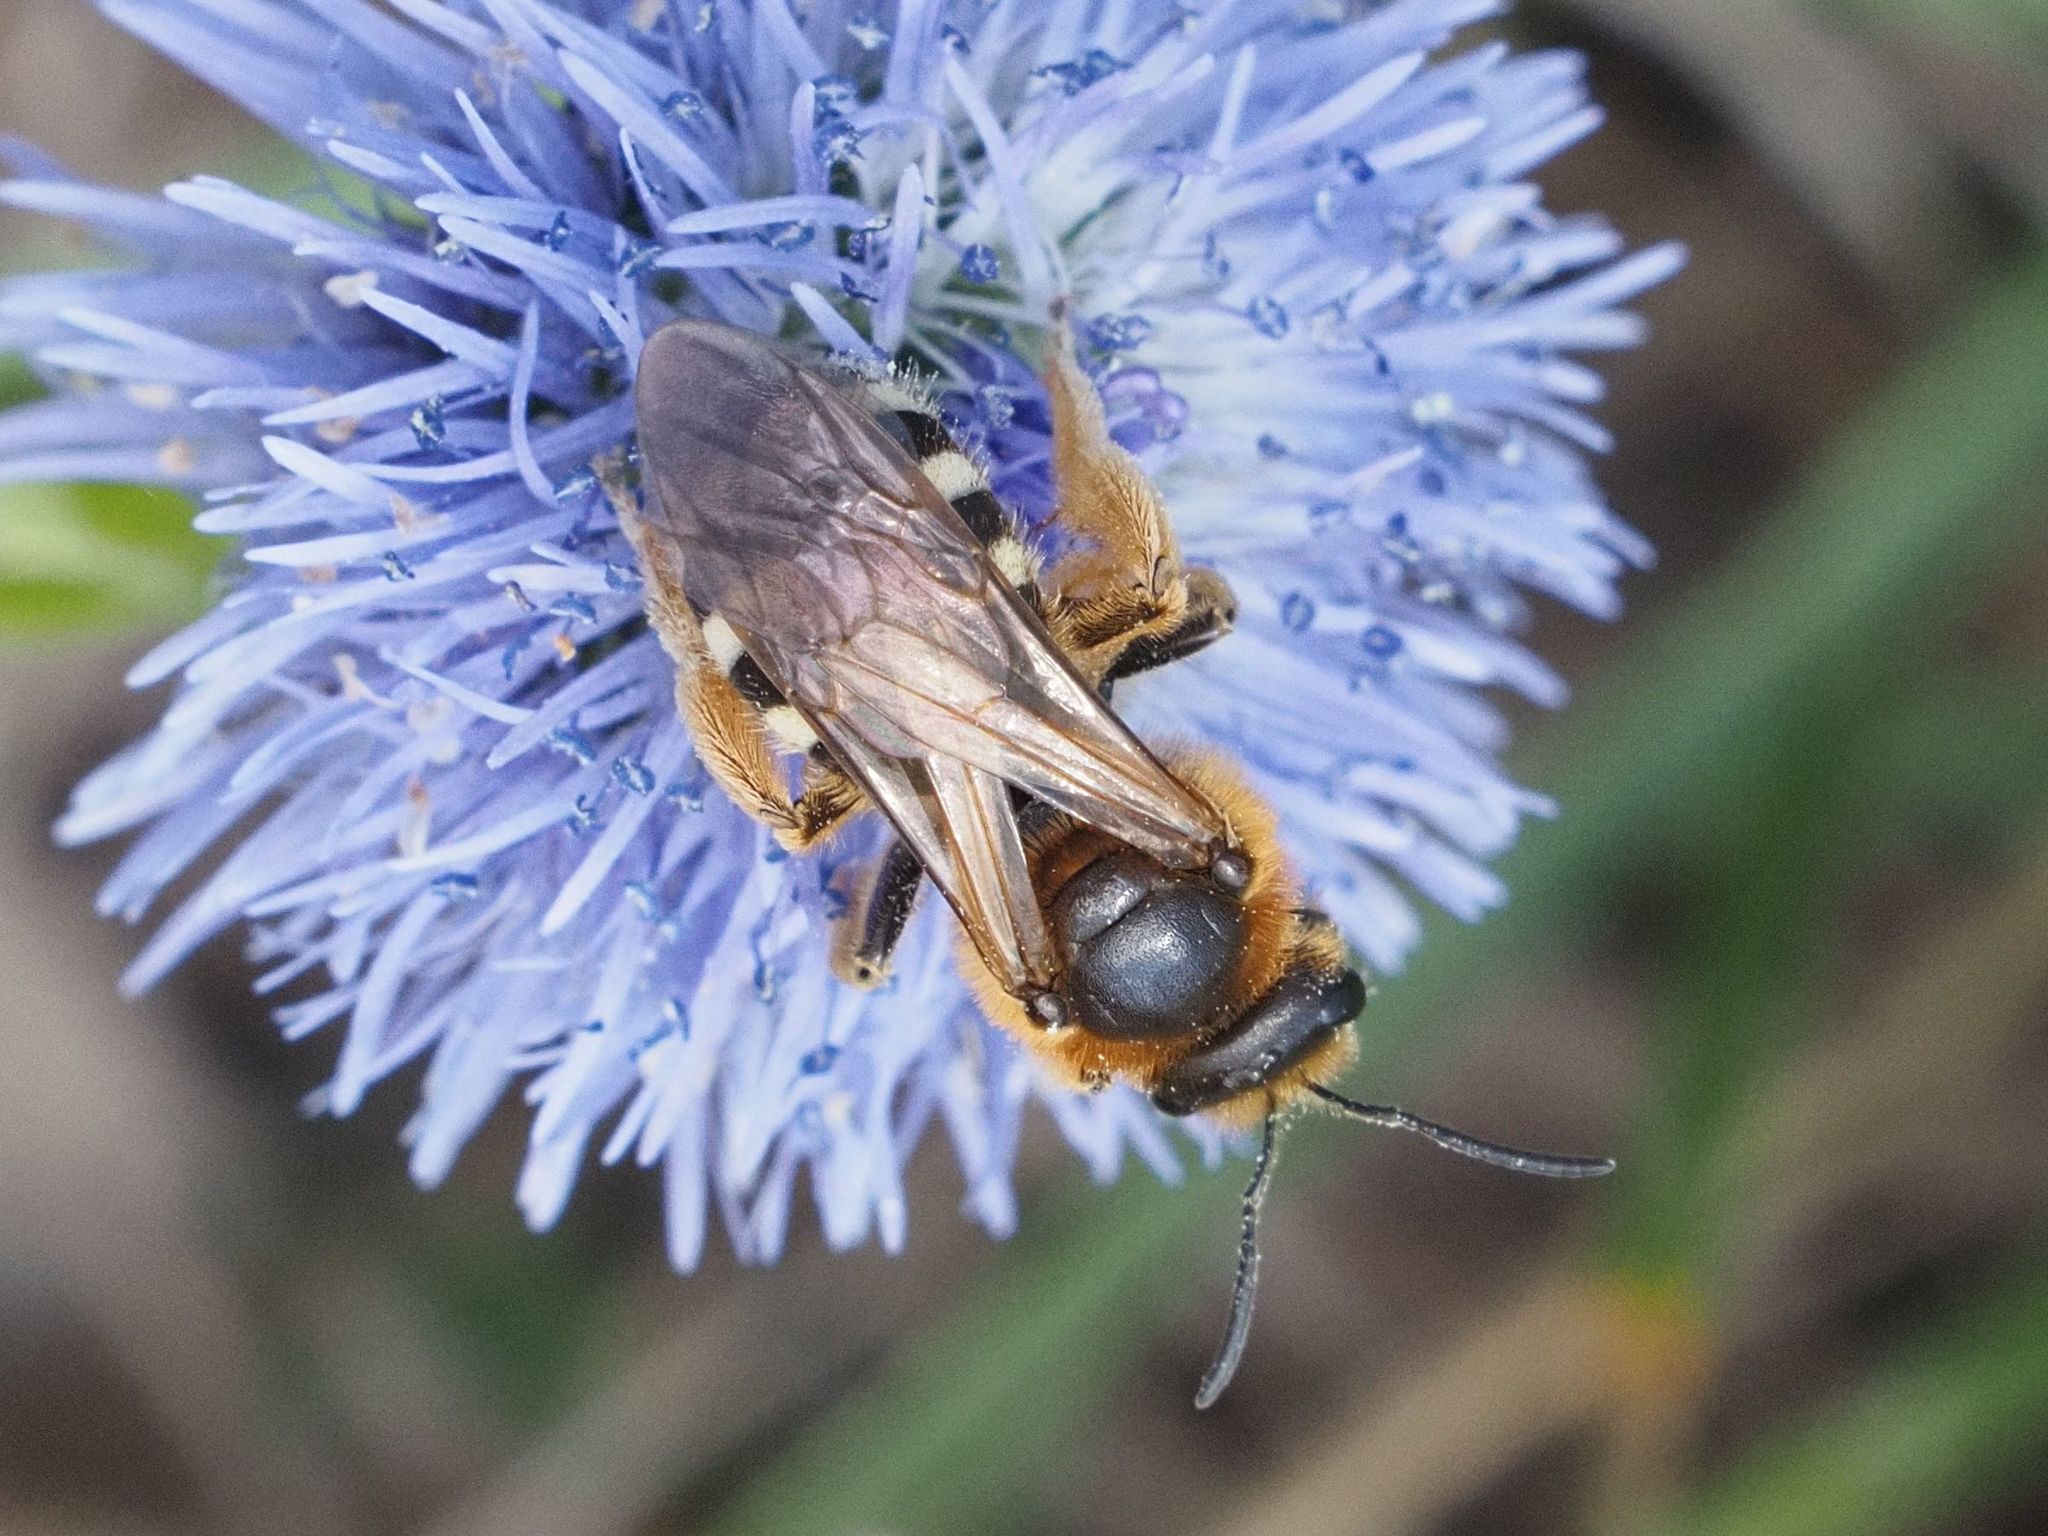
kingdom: Animalia
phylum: Arthropoda
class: Insecta
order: Hymenoptera
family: Halictidae
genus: Lasioglossum
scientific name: Lasioglossum xanthopus
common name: Orange-footed furrow bee
